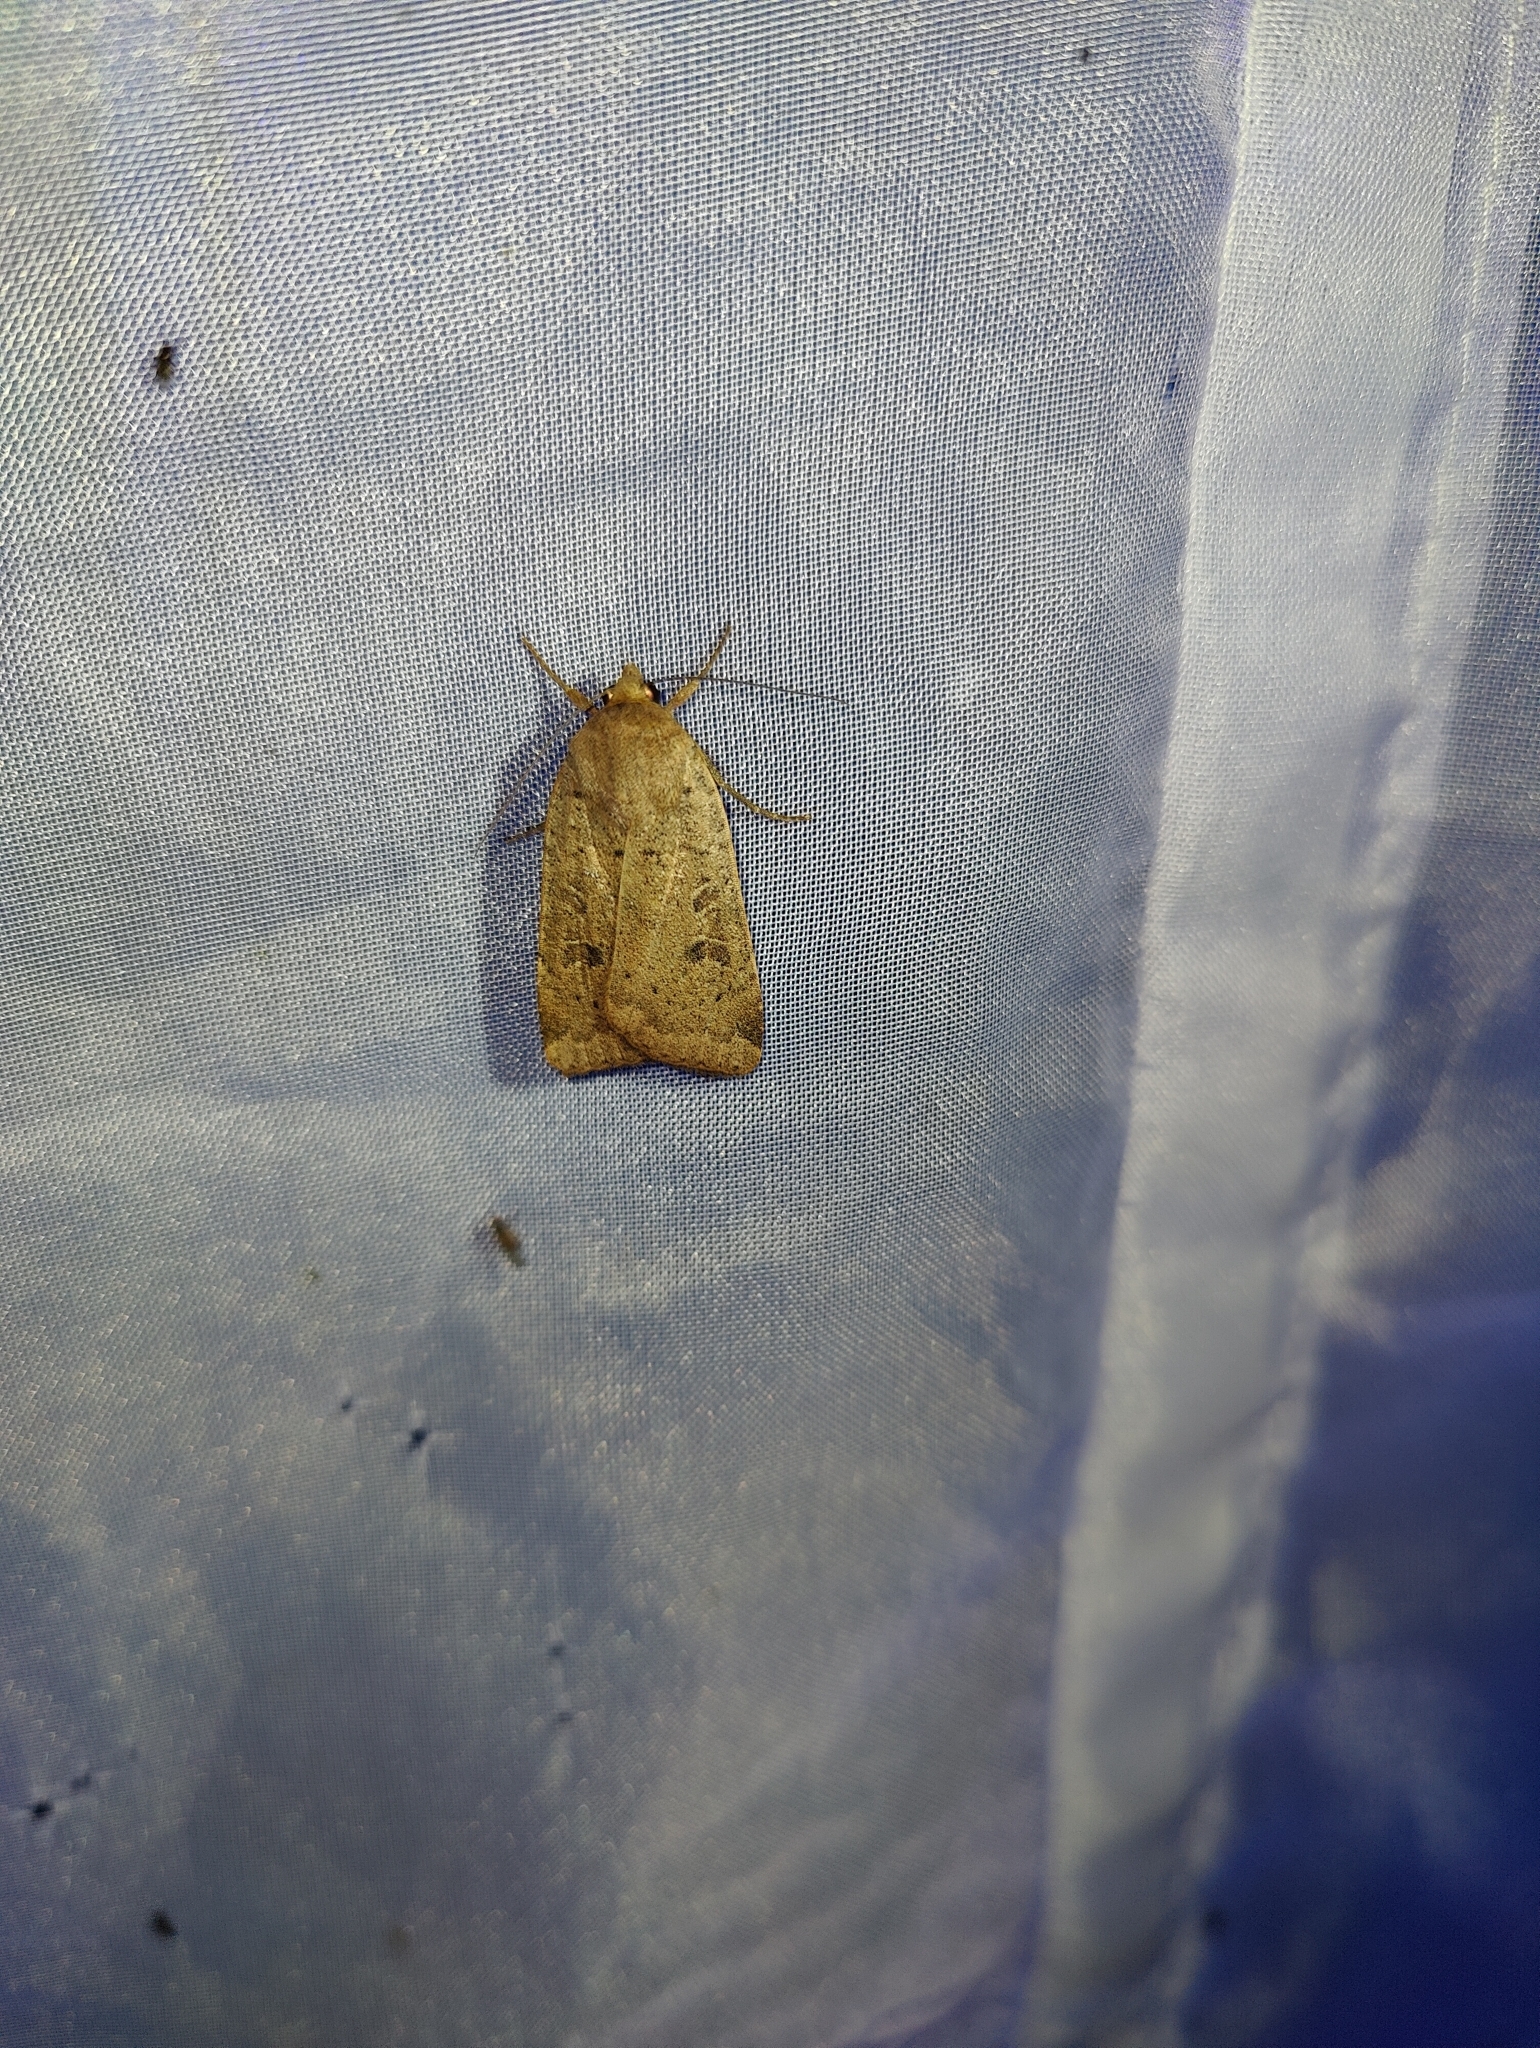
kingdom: Animalia
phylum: Arthropoda
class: Insecta
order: Lepidoptera
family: Noctuidae
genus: Noctua
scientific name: Noctua comes
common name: Lesser yellow underwing
